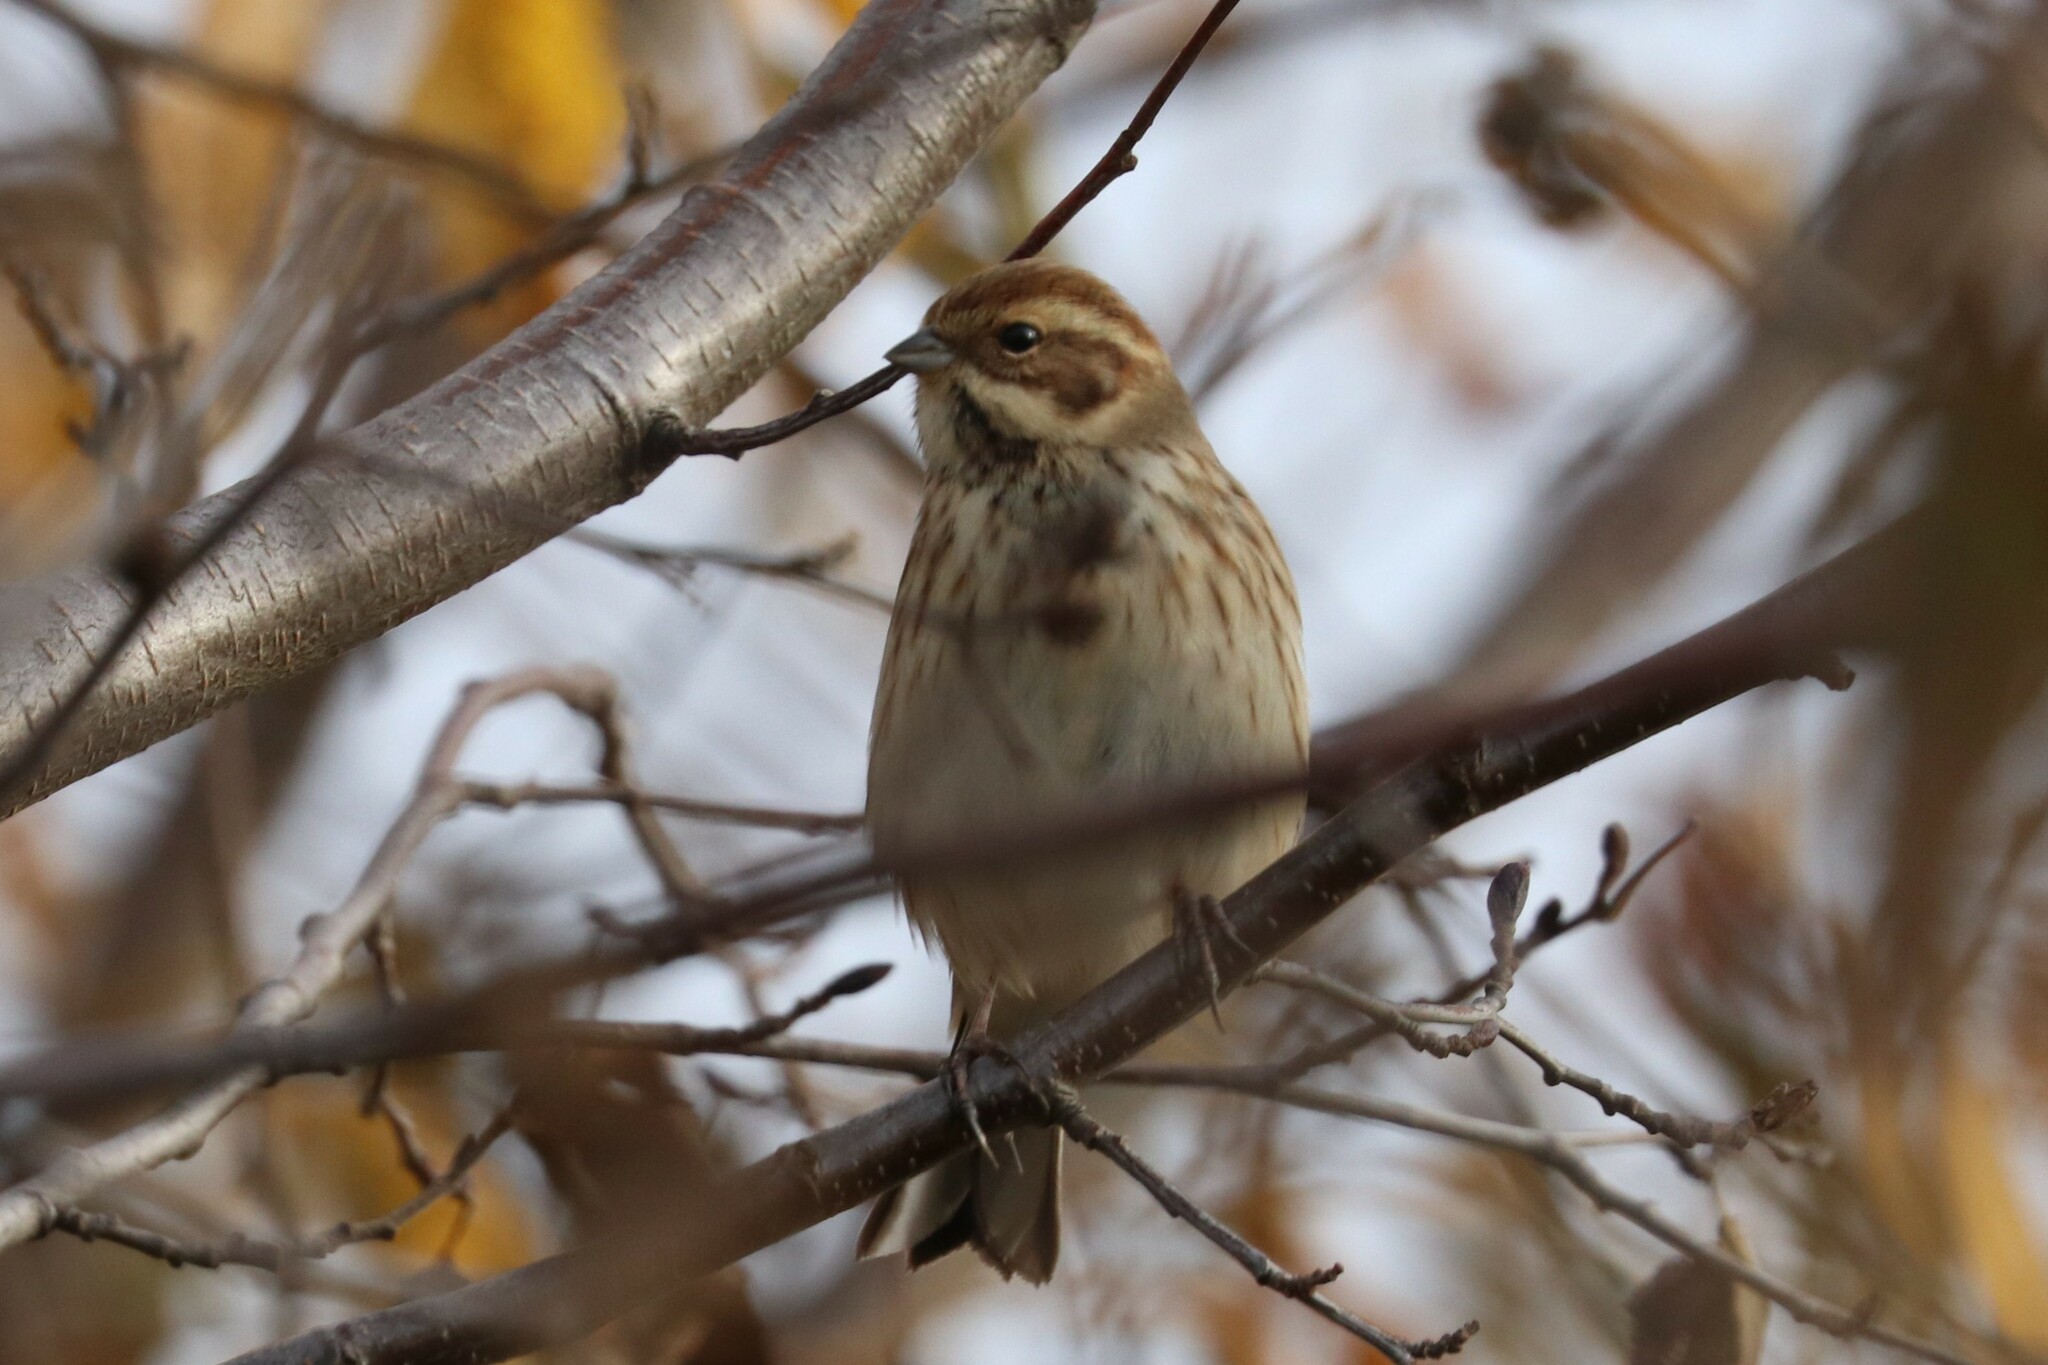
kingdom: Animalia
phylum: Chordata
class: Aves
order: Passeriformes
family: Emberizidae
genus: Emberiza
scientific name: Emberiza schoeniclus
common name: Reed bunting
